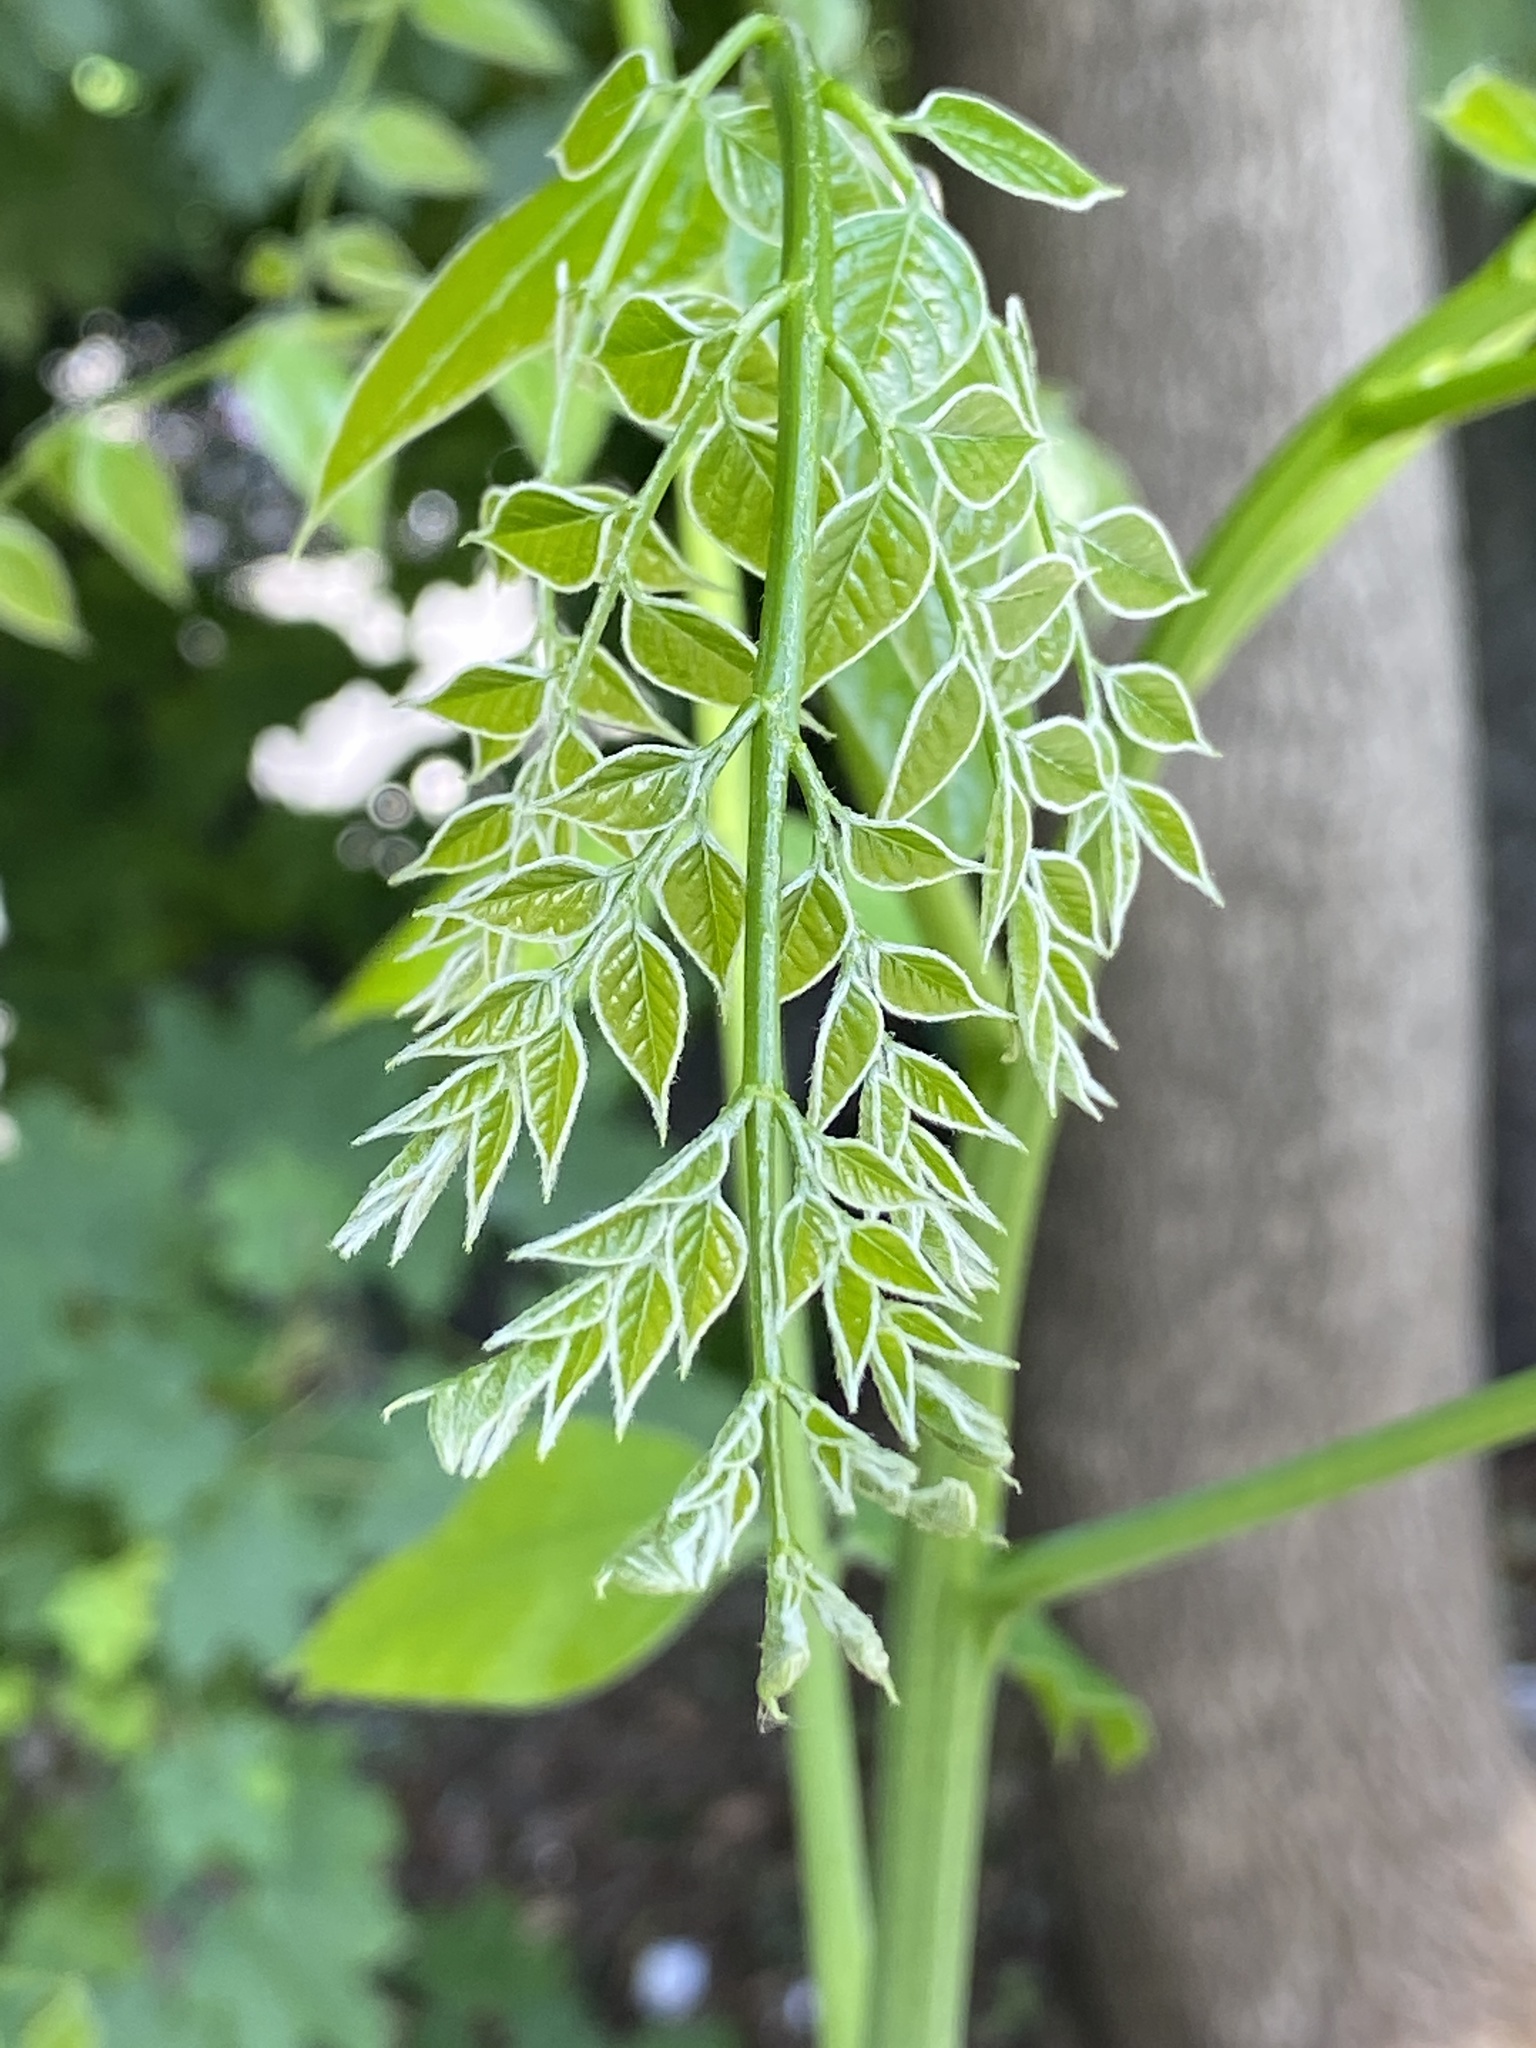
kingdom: Plantae
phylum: Tracheophyta
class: Magnoliopsida
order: Fabales
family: Fabaceae
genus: Gymnocladus
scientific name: Gymnocladus dioicus
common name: Kentucky coffee-tree
